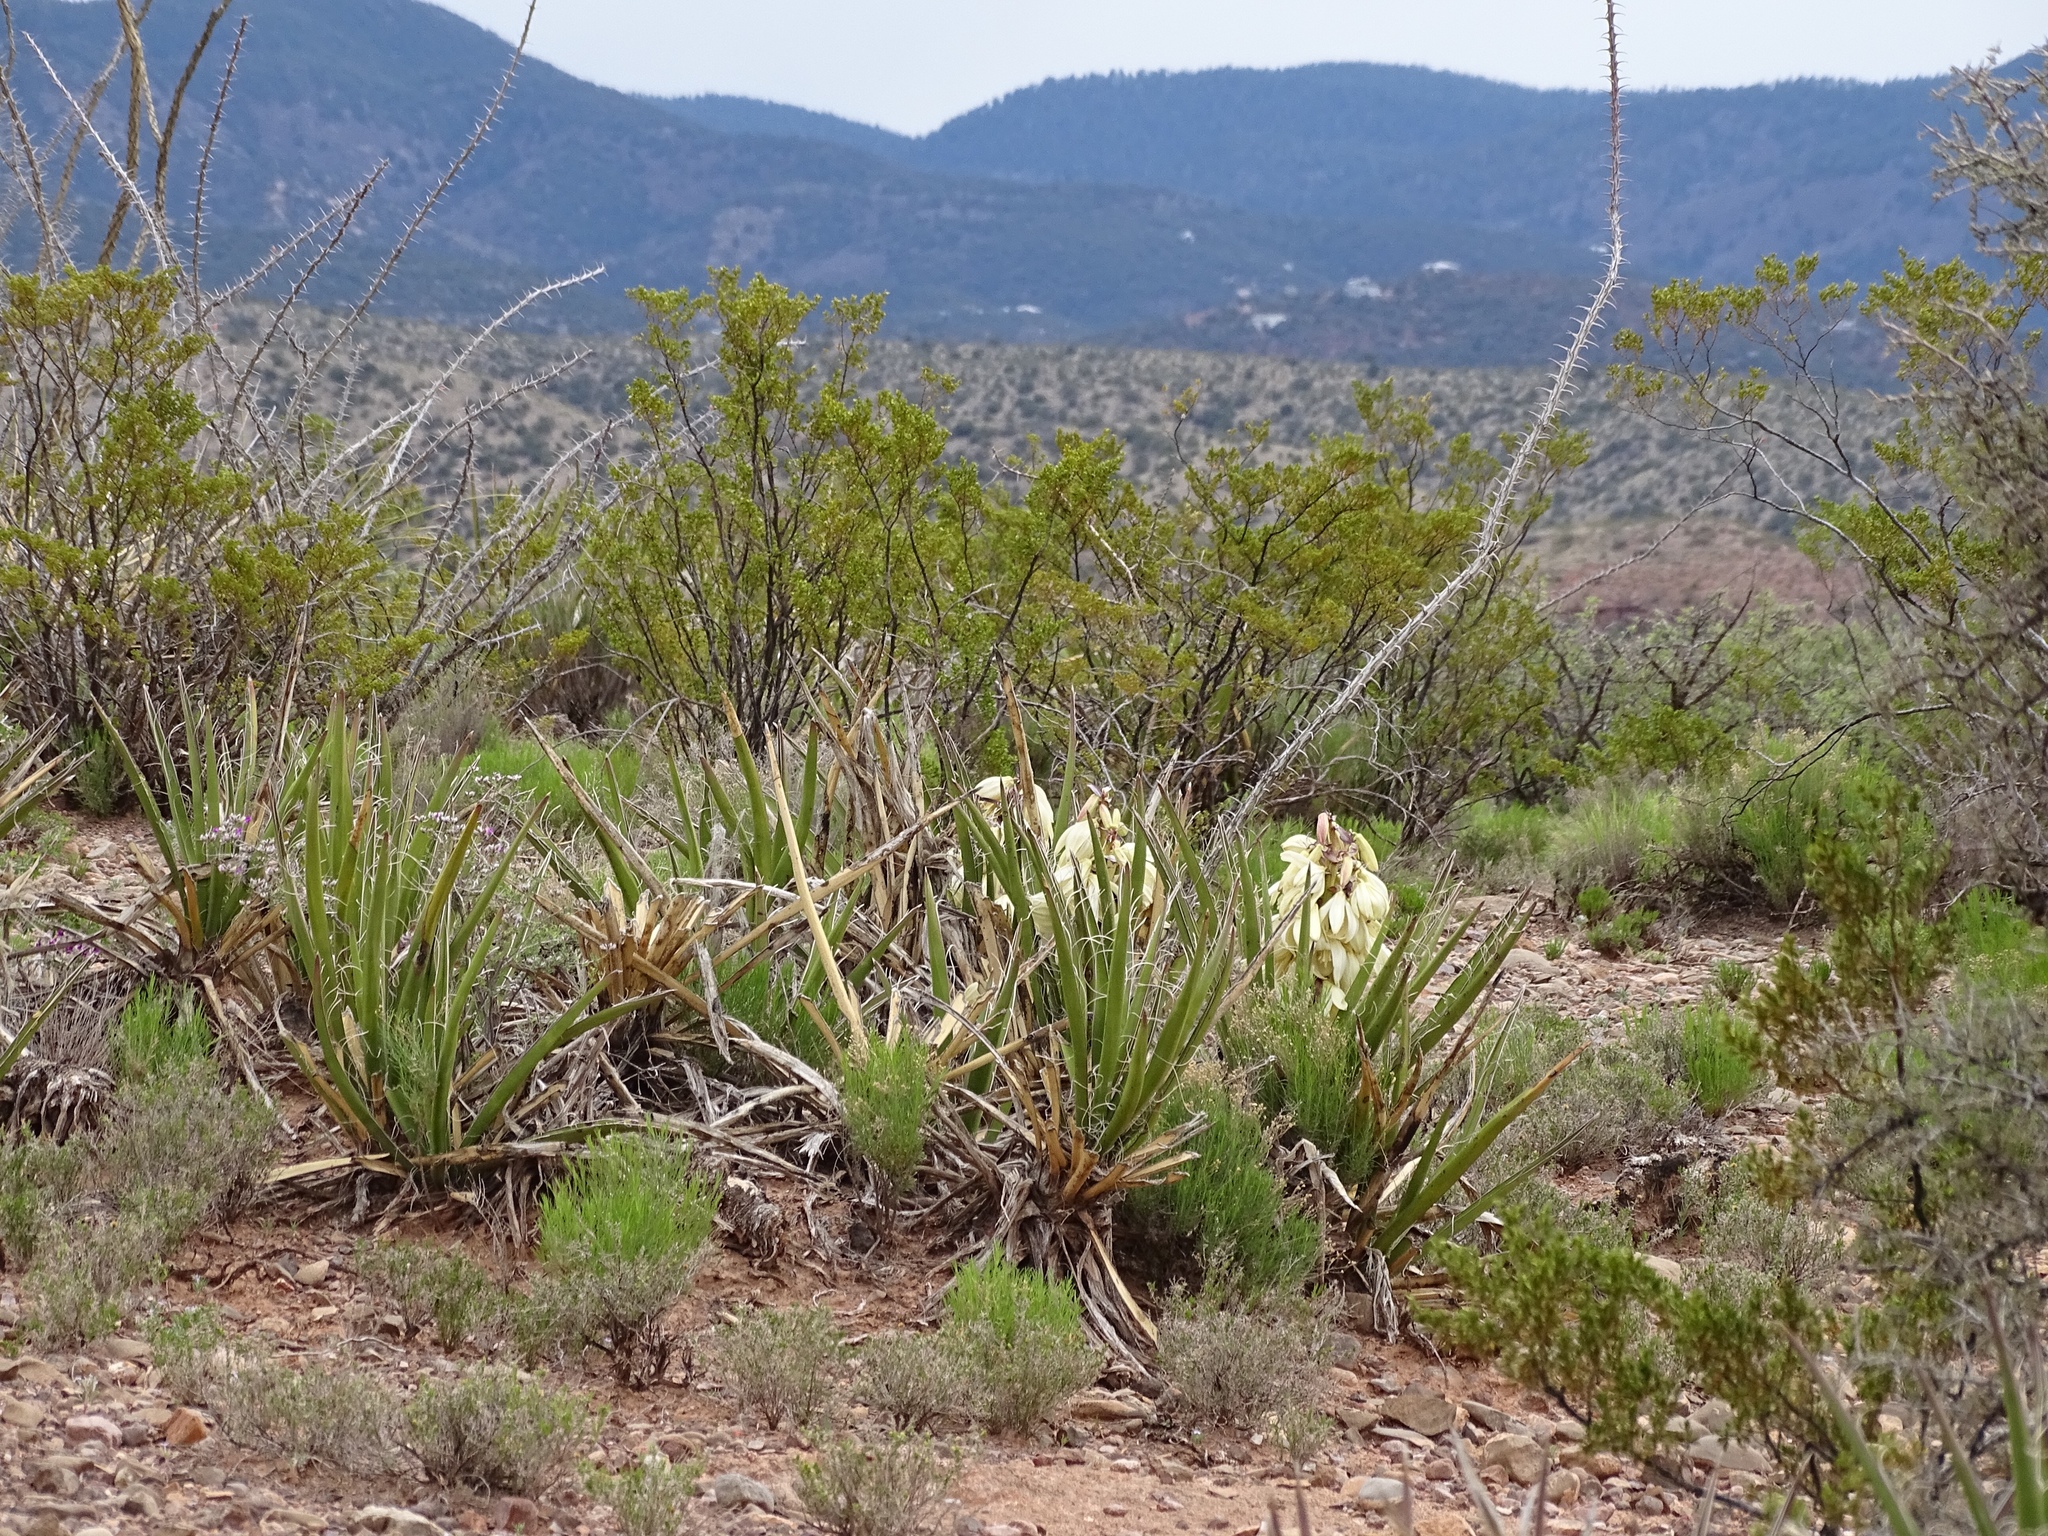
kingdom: Plantae
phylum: Tracheophyta
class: Liliopsida
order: Asparagales
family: Asparagaceae
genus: Yucca
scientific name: Yucca baccata
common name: Banana yucca
